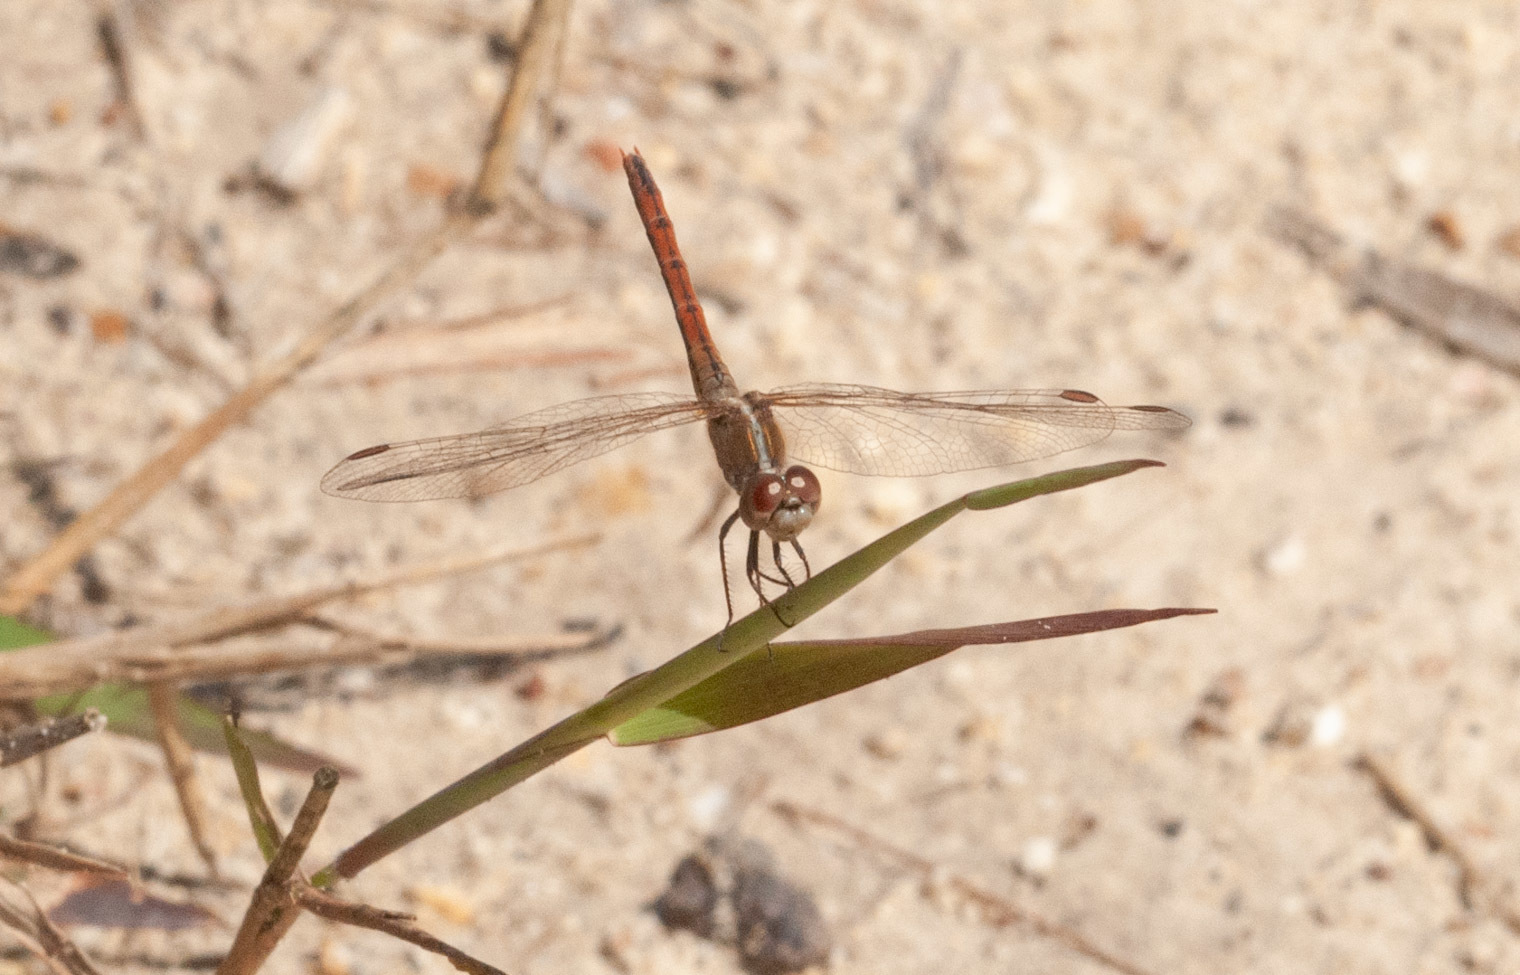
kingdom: Animalia
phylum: Arthropoda
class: Insecta
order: Odonata
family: Libellulidae
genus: Diplacodes
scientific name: Diplacodes bipunctata
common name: Red percher dragonfly
